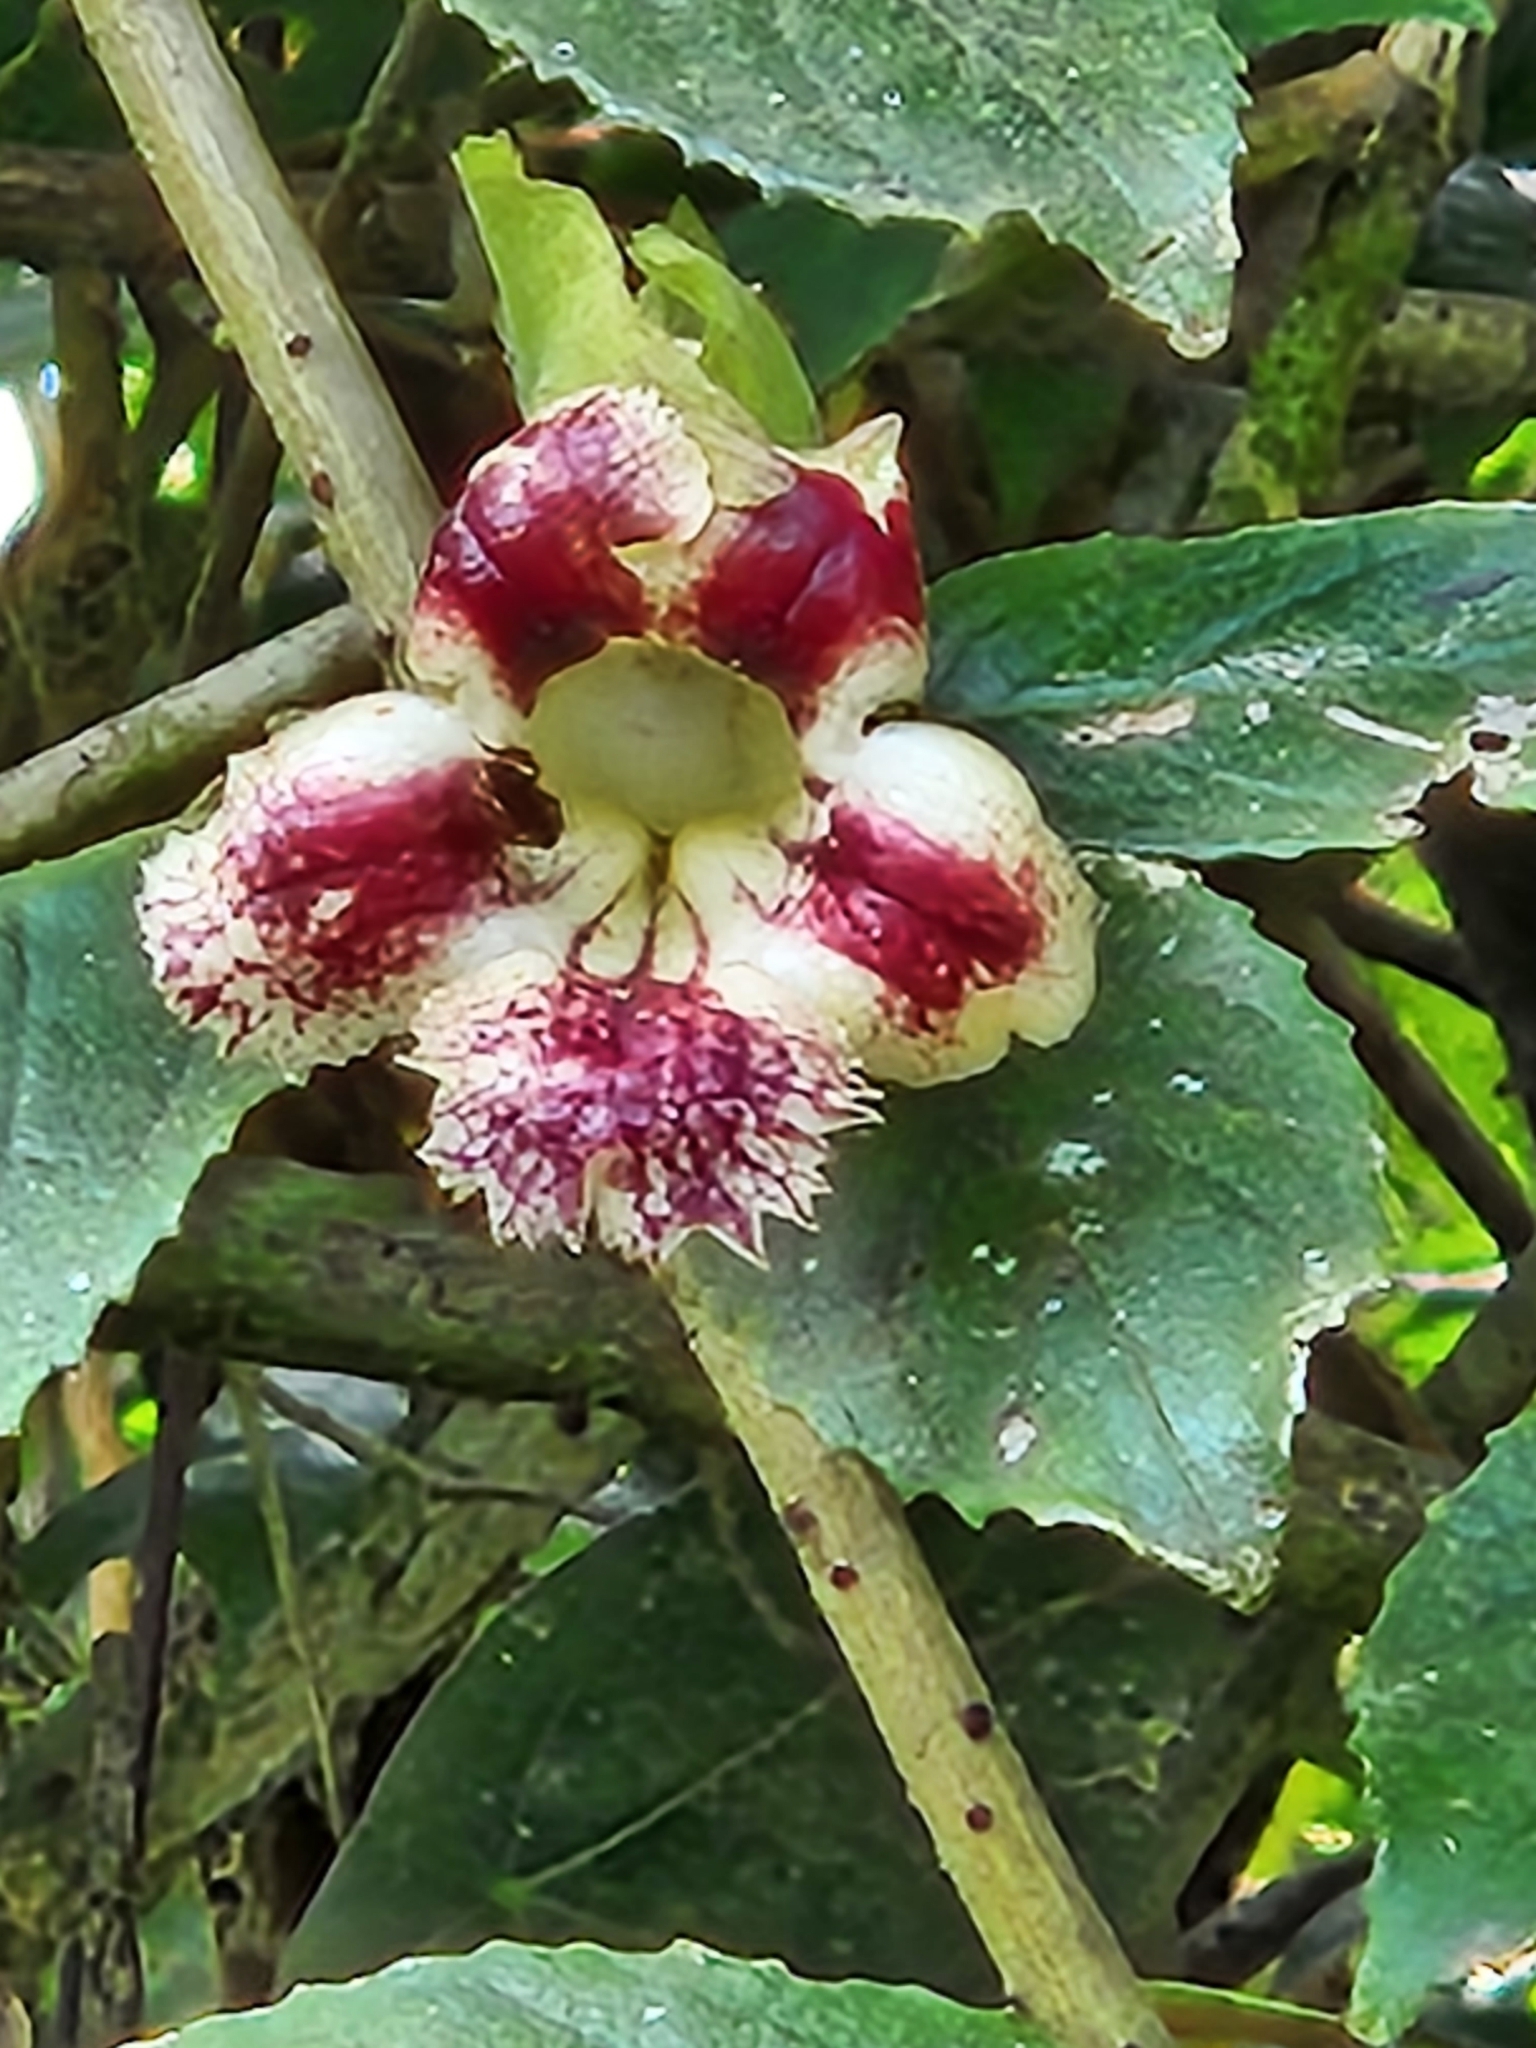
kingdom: Plantae
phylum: Tracheophyta
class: Magnoliopsida
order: Lamiales
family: Gesneriaceae
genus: Drymonia
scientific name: Drymonia serrulata
